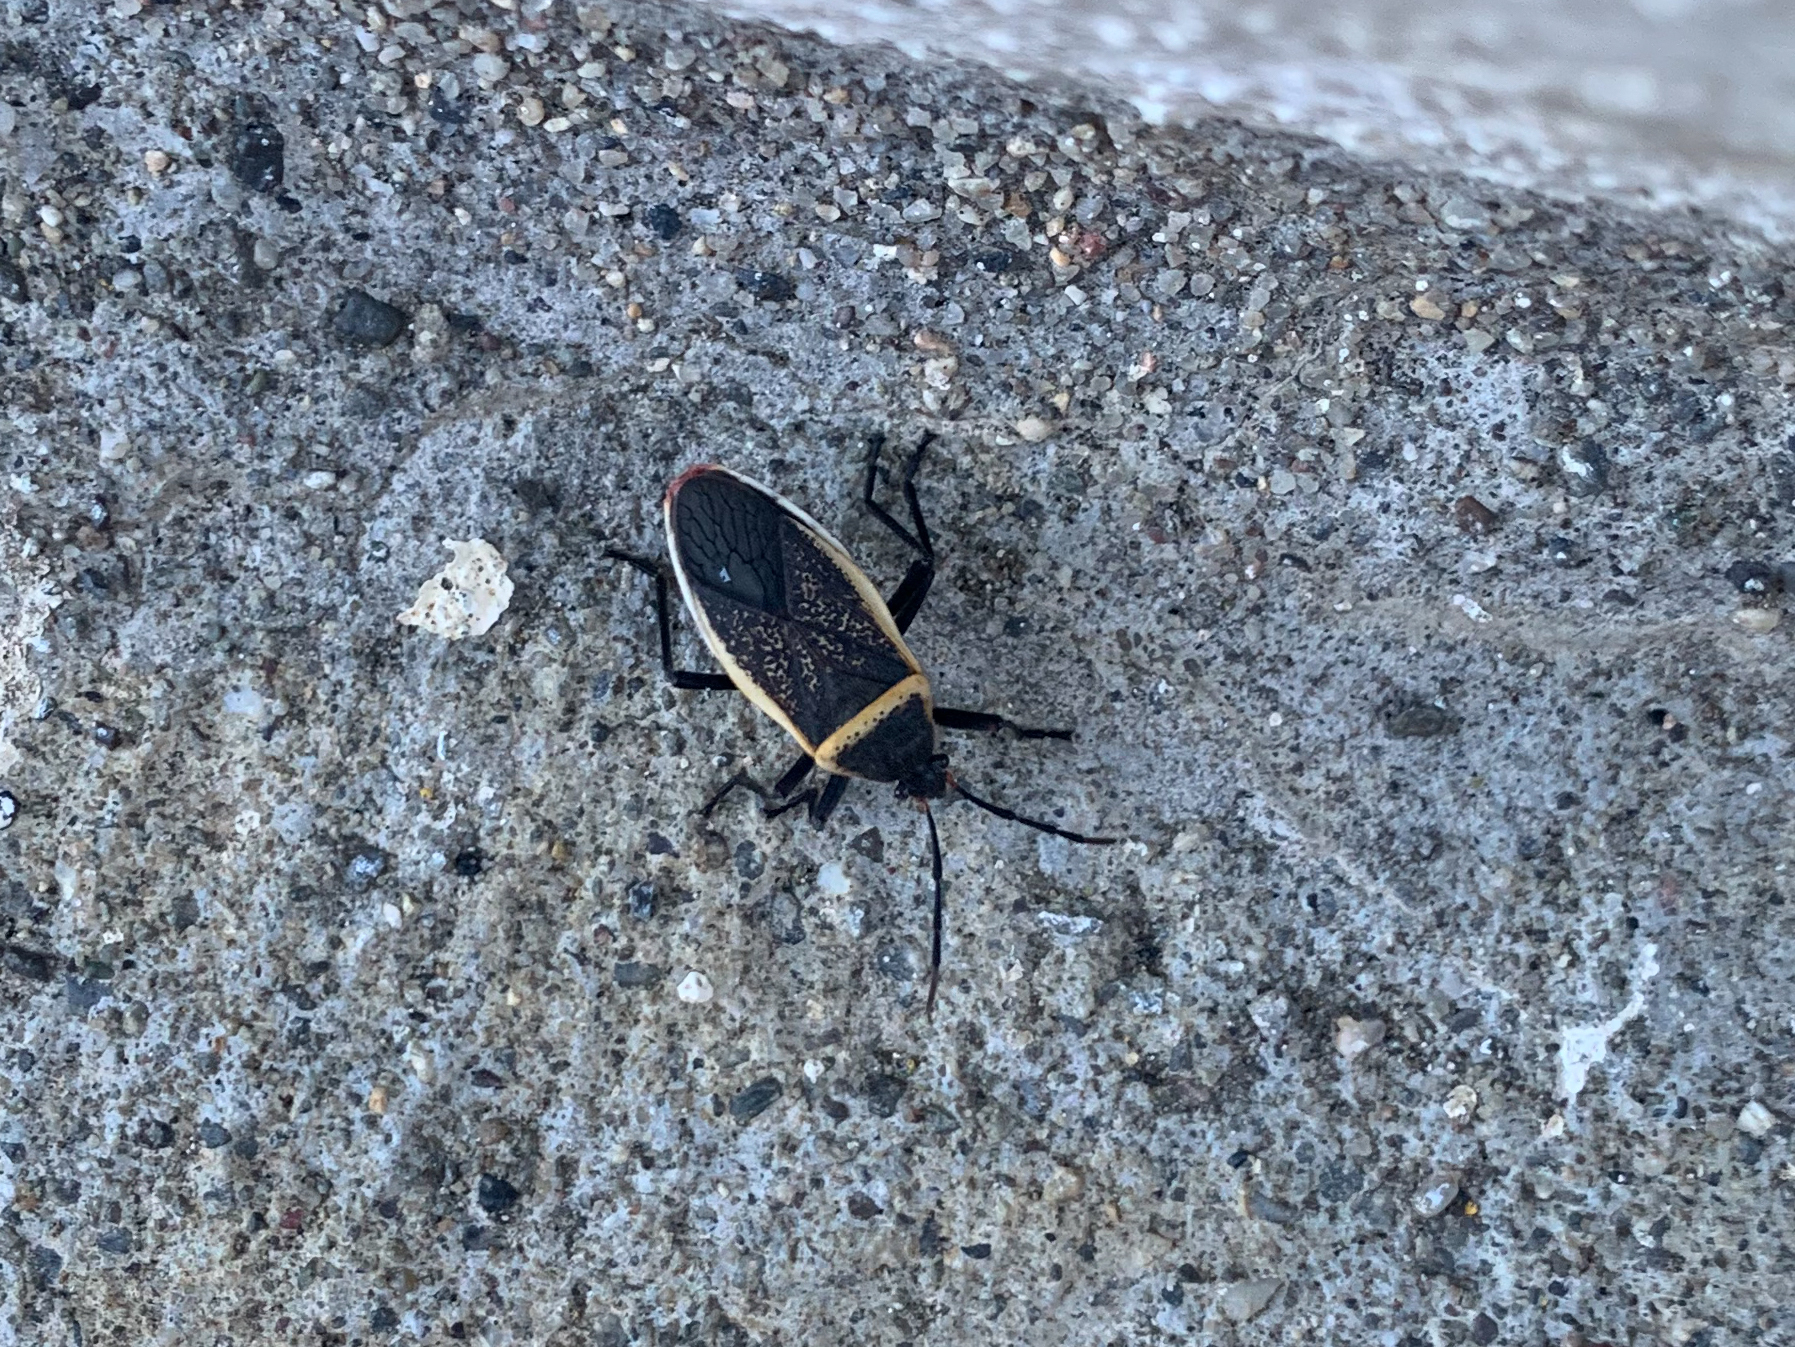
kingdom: Animalia
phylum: Arthropoda
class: Insecta
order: Hemiptera
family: Largidae
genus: Largus
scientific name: Largus californicus
